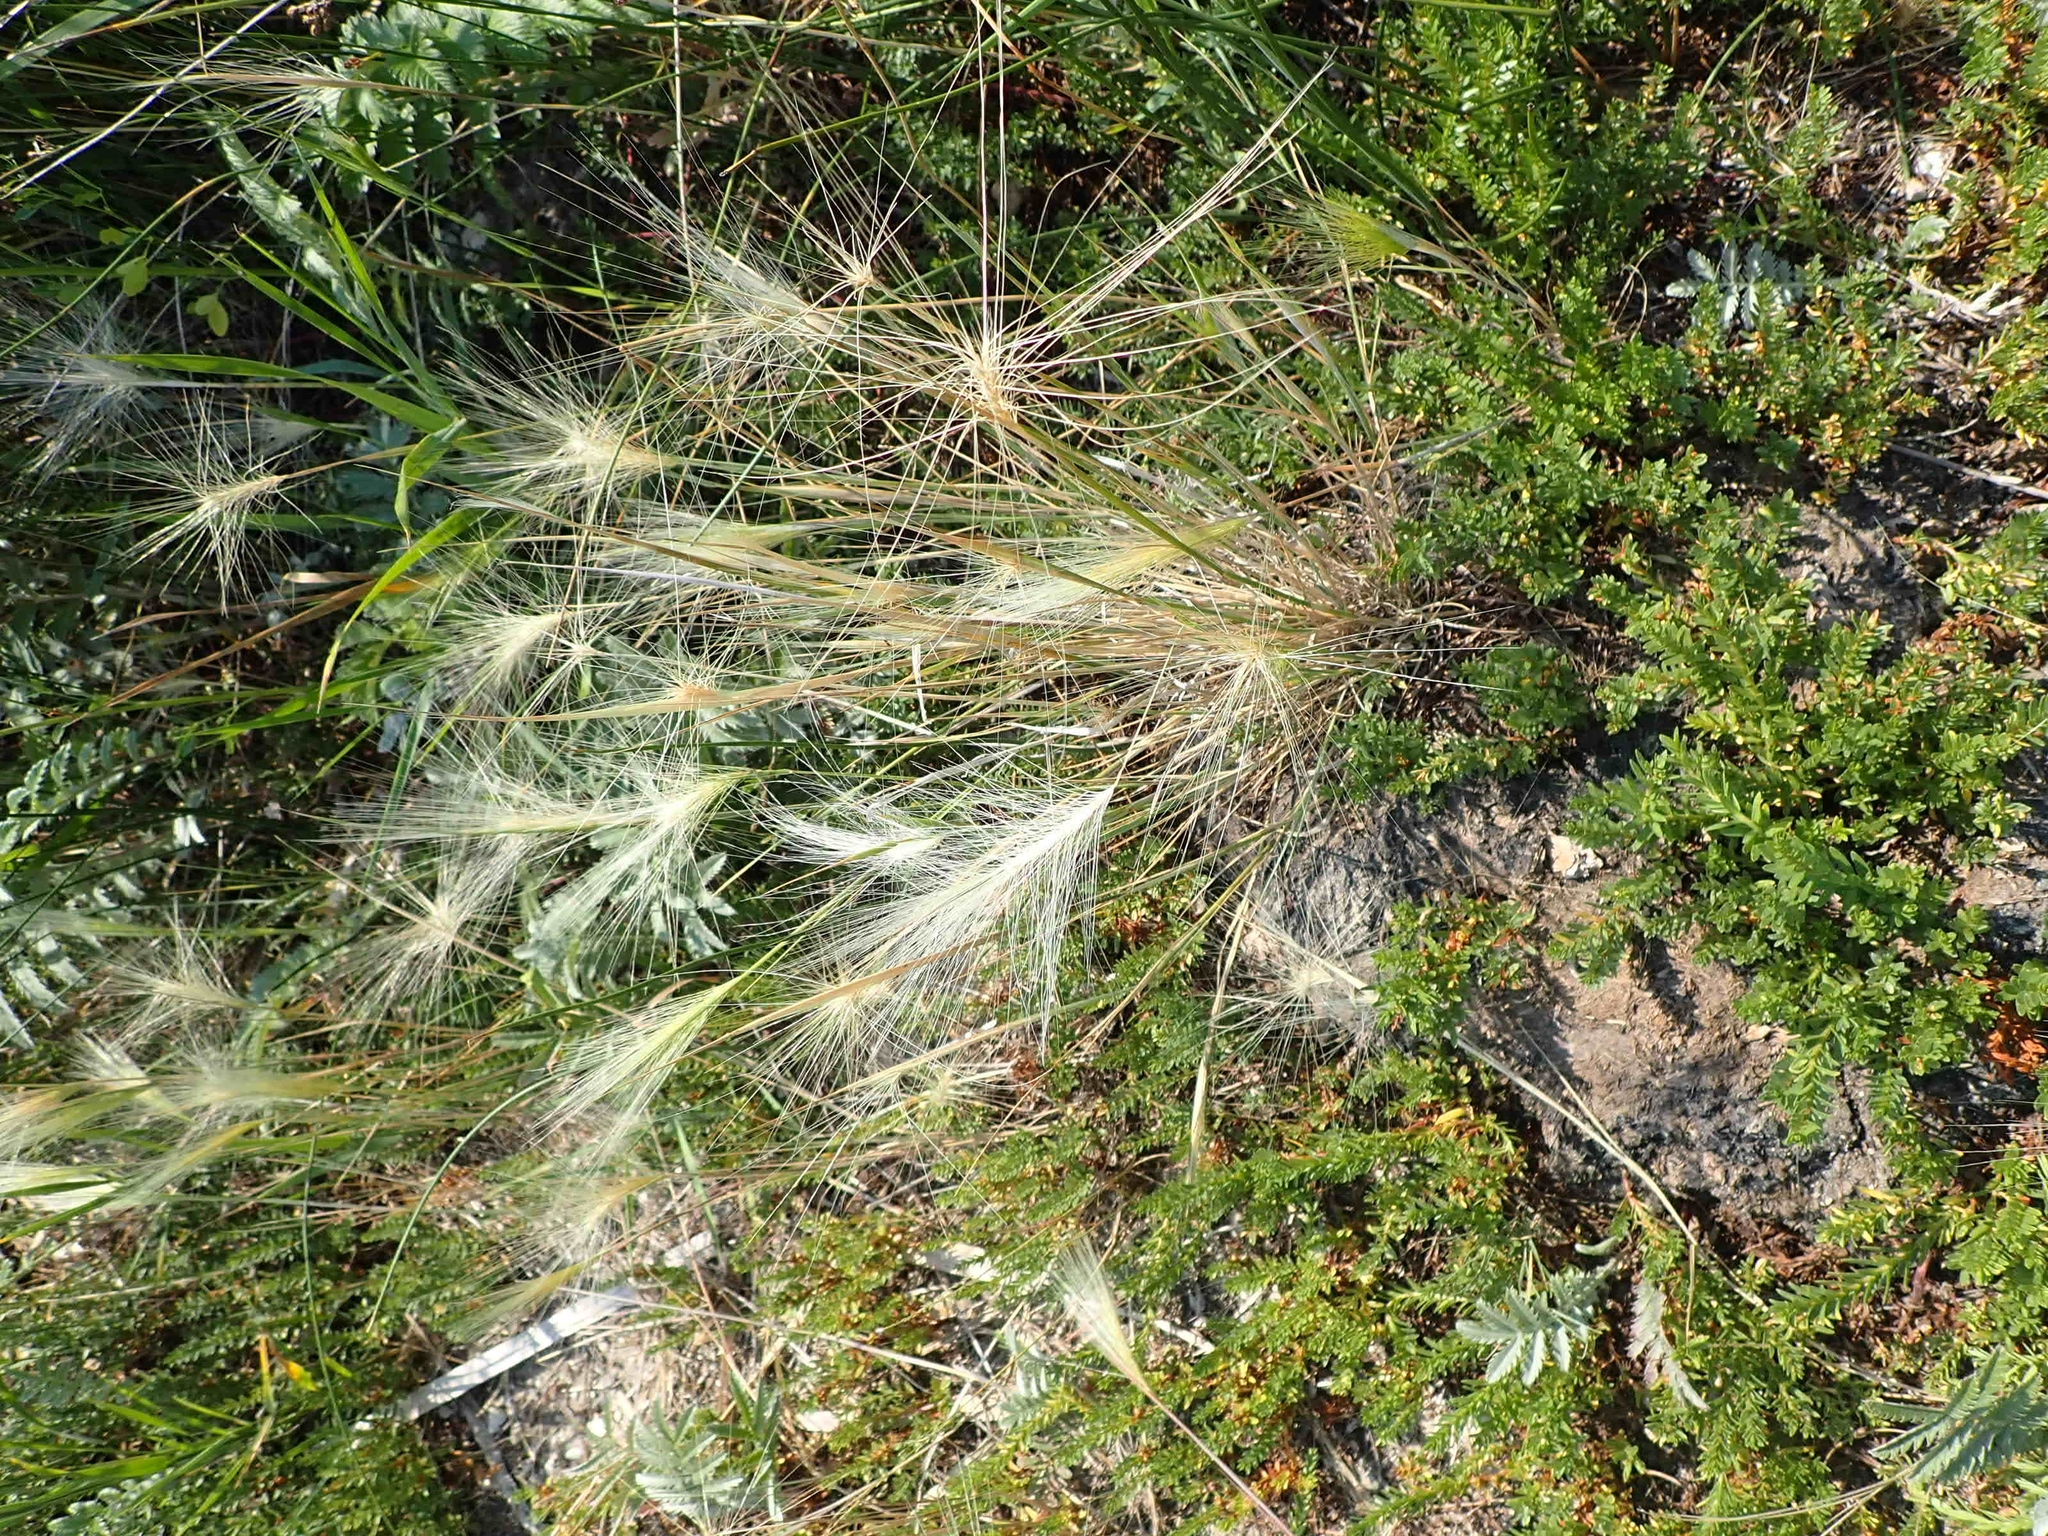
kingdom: Plantae
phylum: Tracheophyta
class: Liliopsida
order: Poales
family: Poaceae
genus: Hordeum
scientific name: Hordeum jubatum
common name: Foxtail barley
